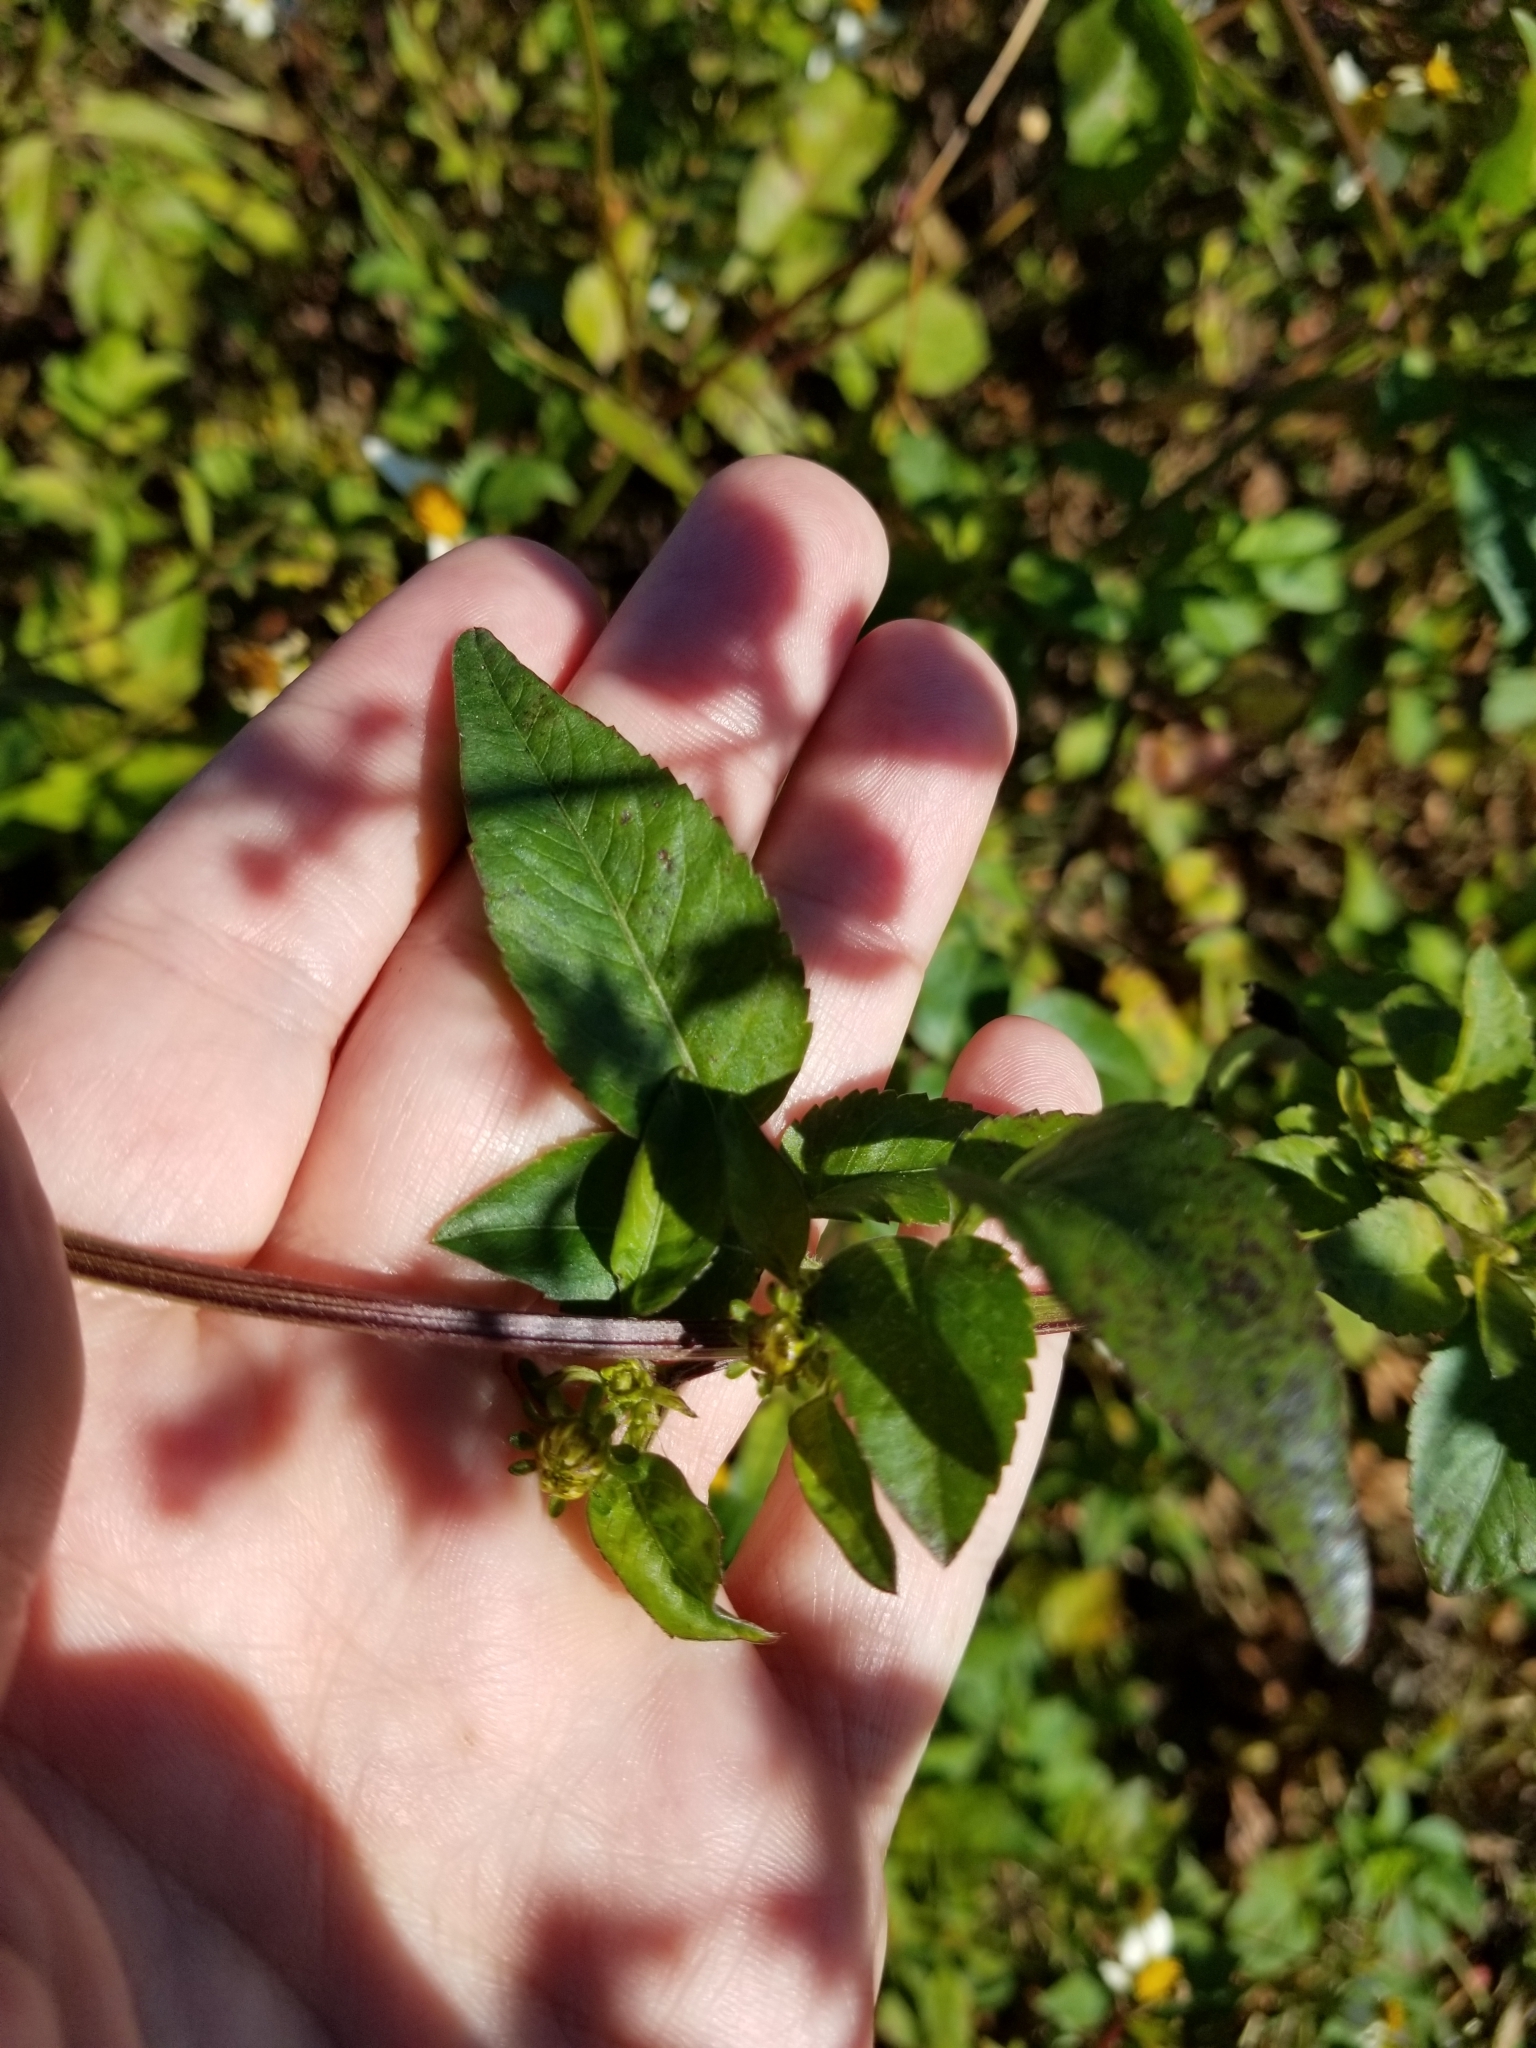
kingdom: Plantae
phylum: Tracheophyta
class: Magnoliopsida
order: Asterales
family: Asteraceae
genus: Bidens
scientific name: Bidens alba
